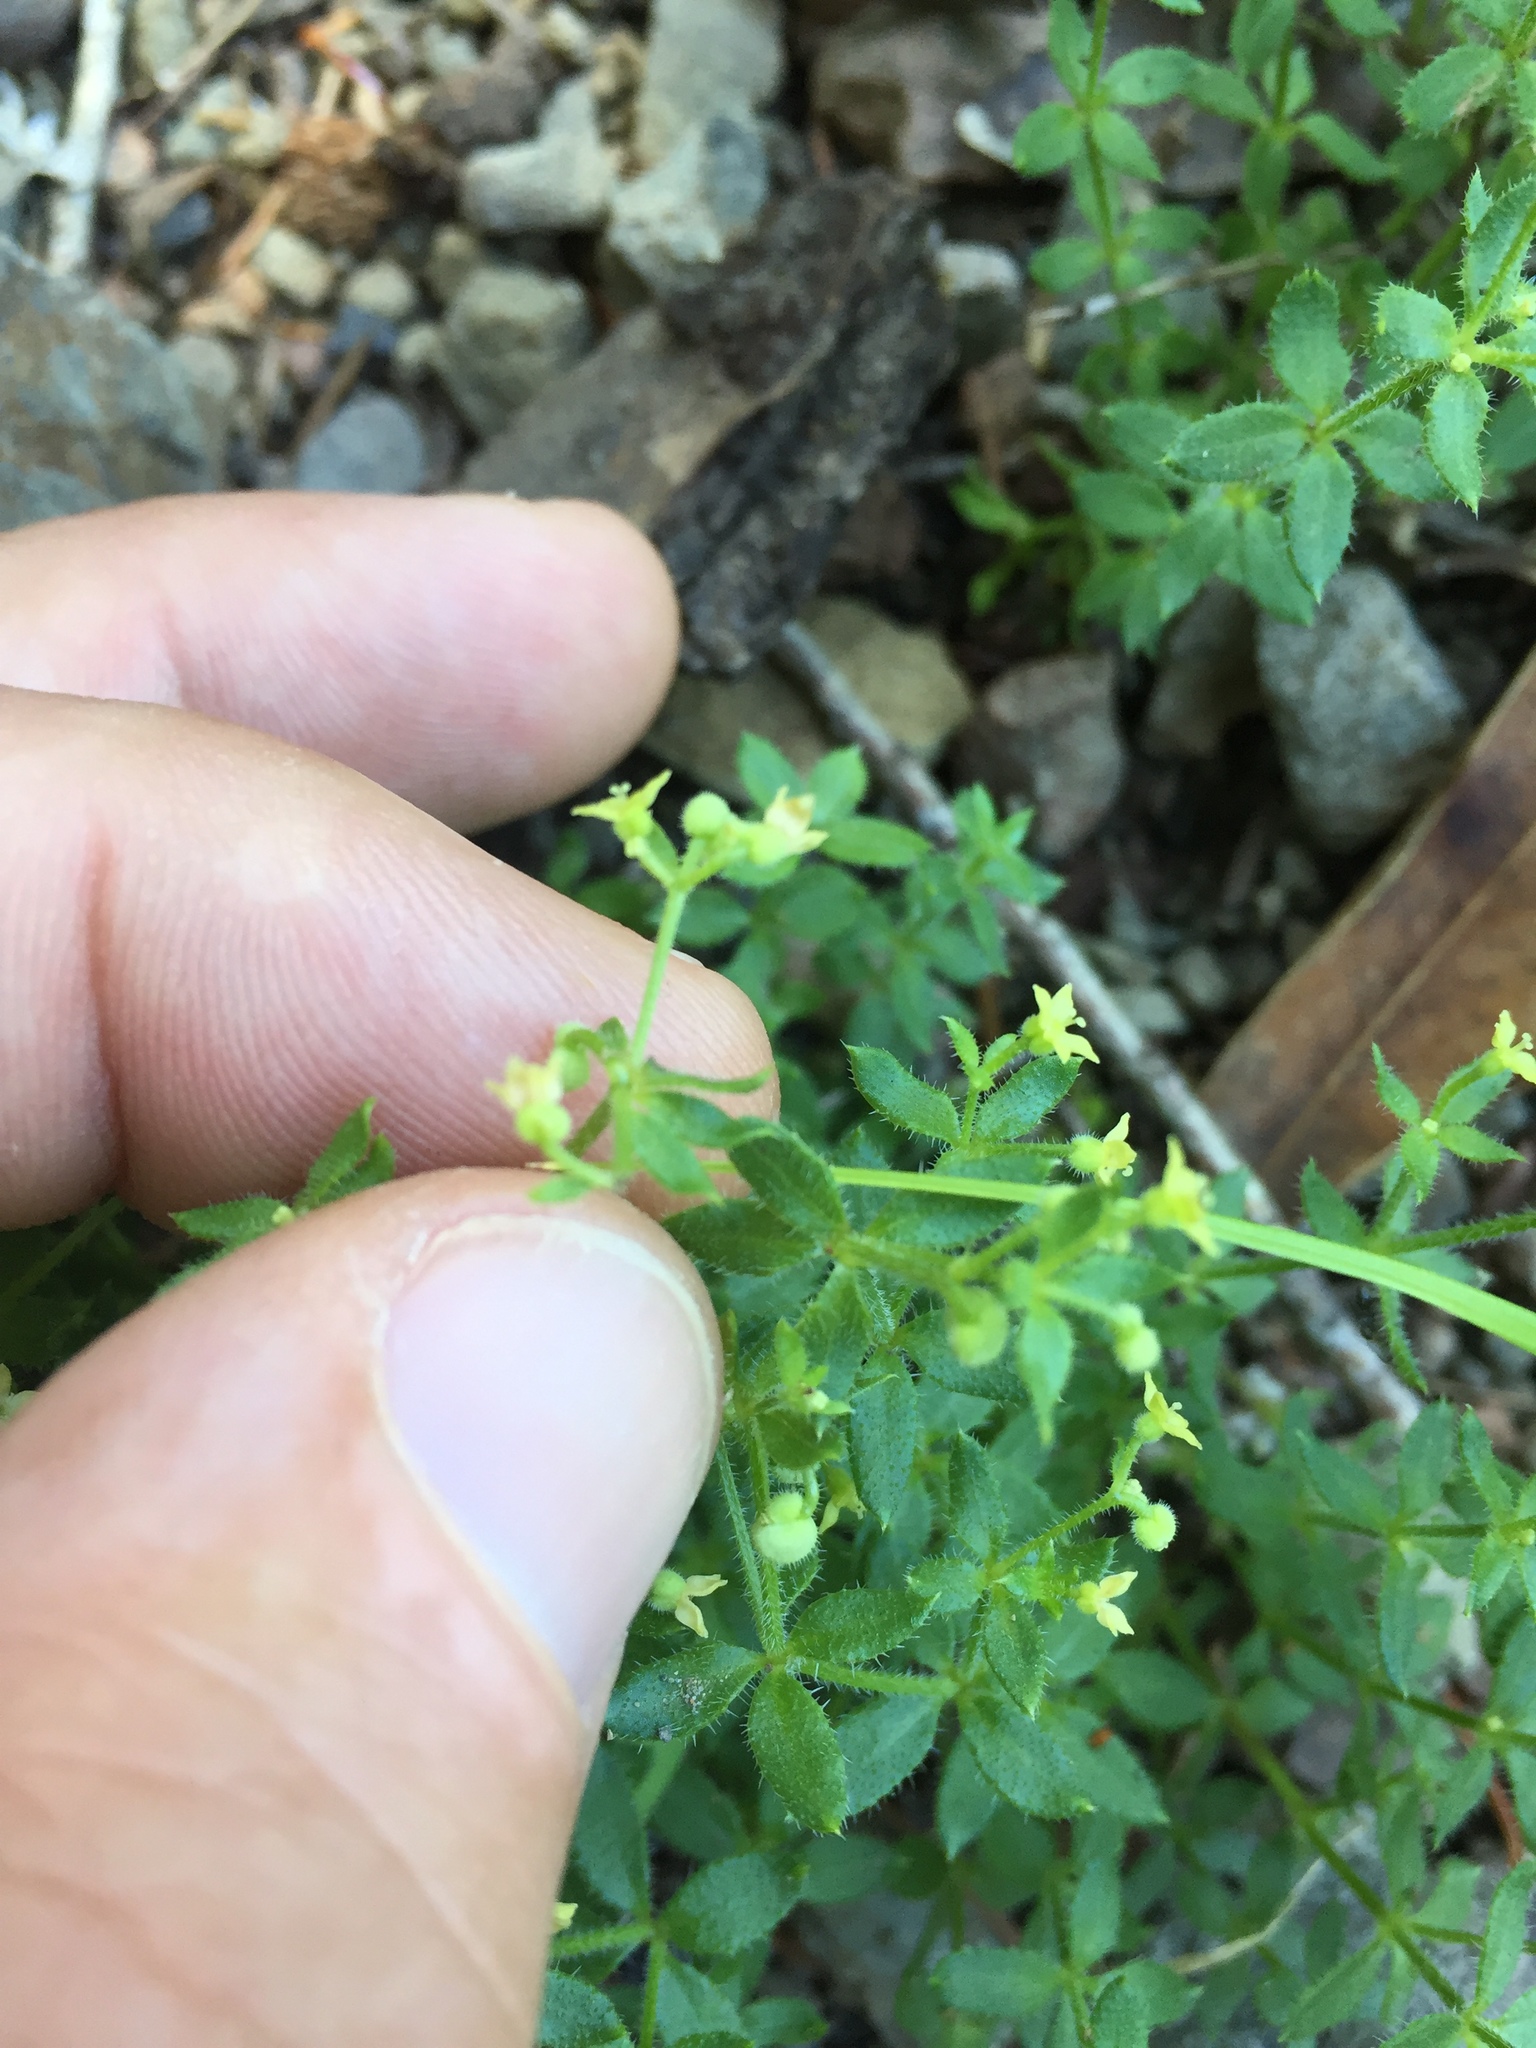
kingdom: Plantae
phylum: Tracheophyta
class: Magnoliopsida
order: Gentianales
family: Rubiaceae
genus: Galium
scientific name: Galium californicum
